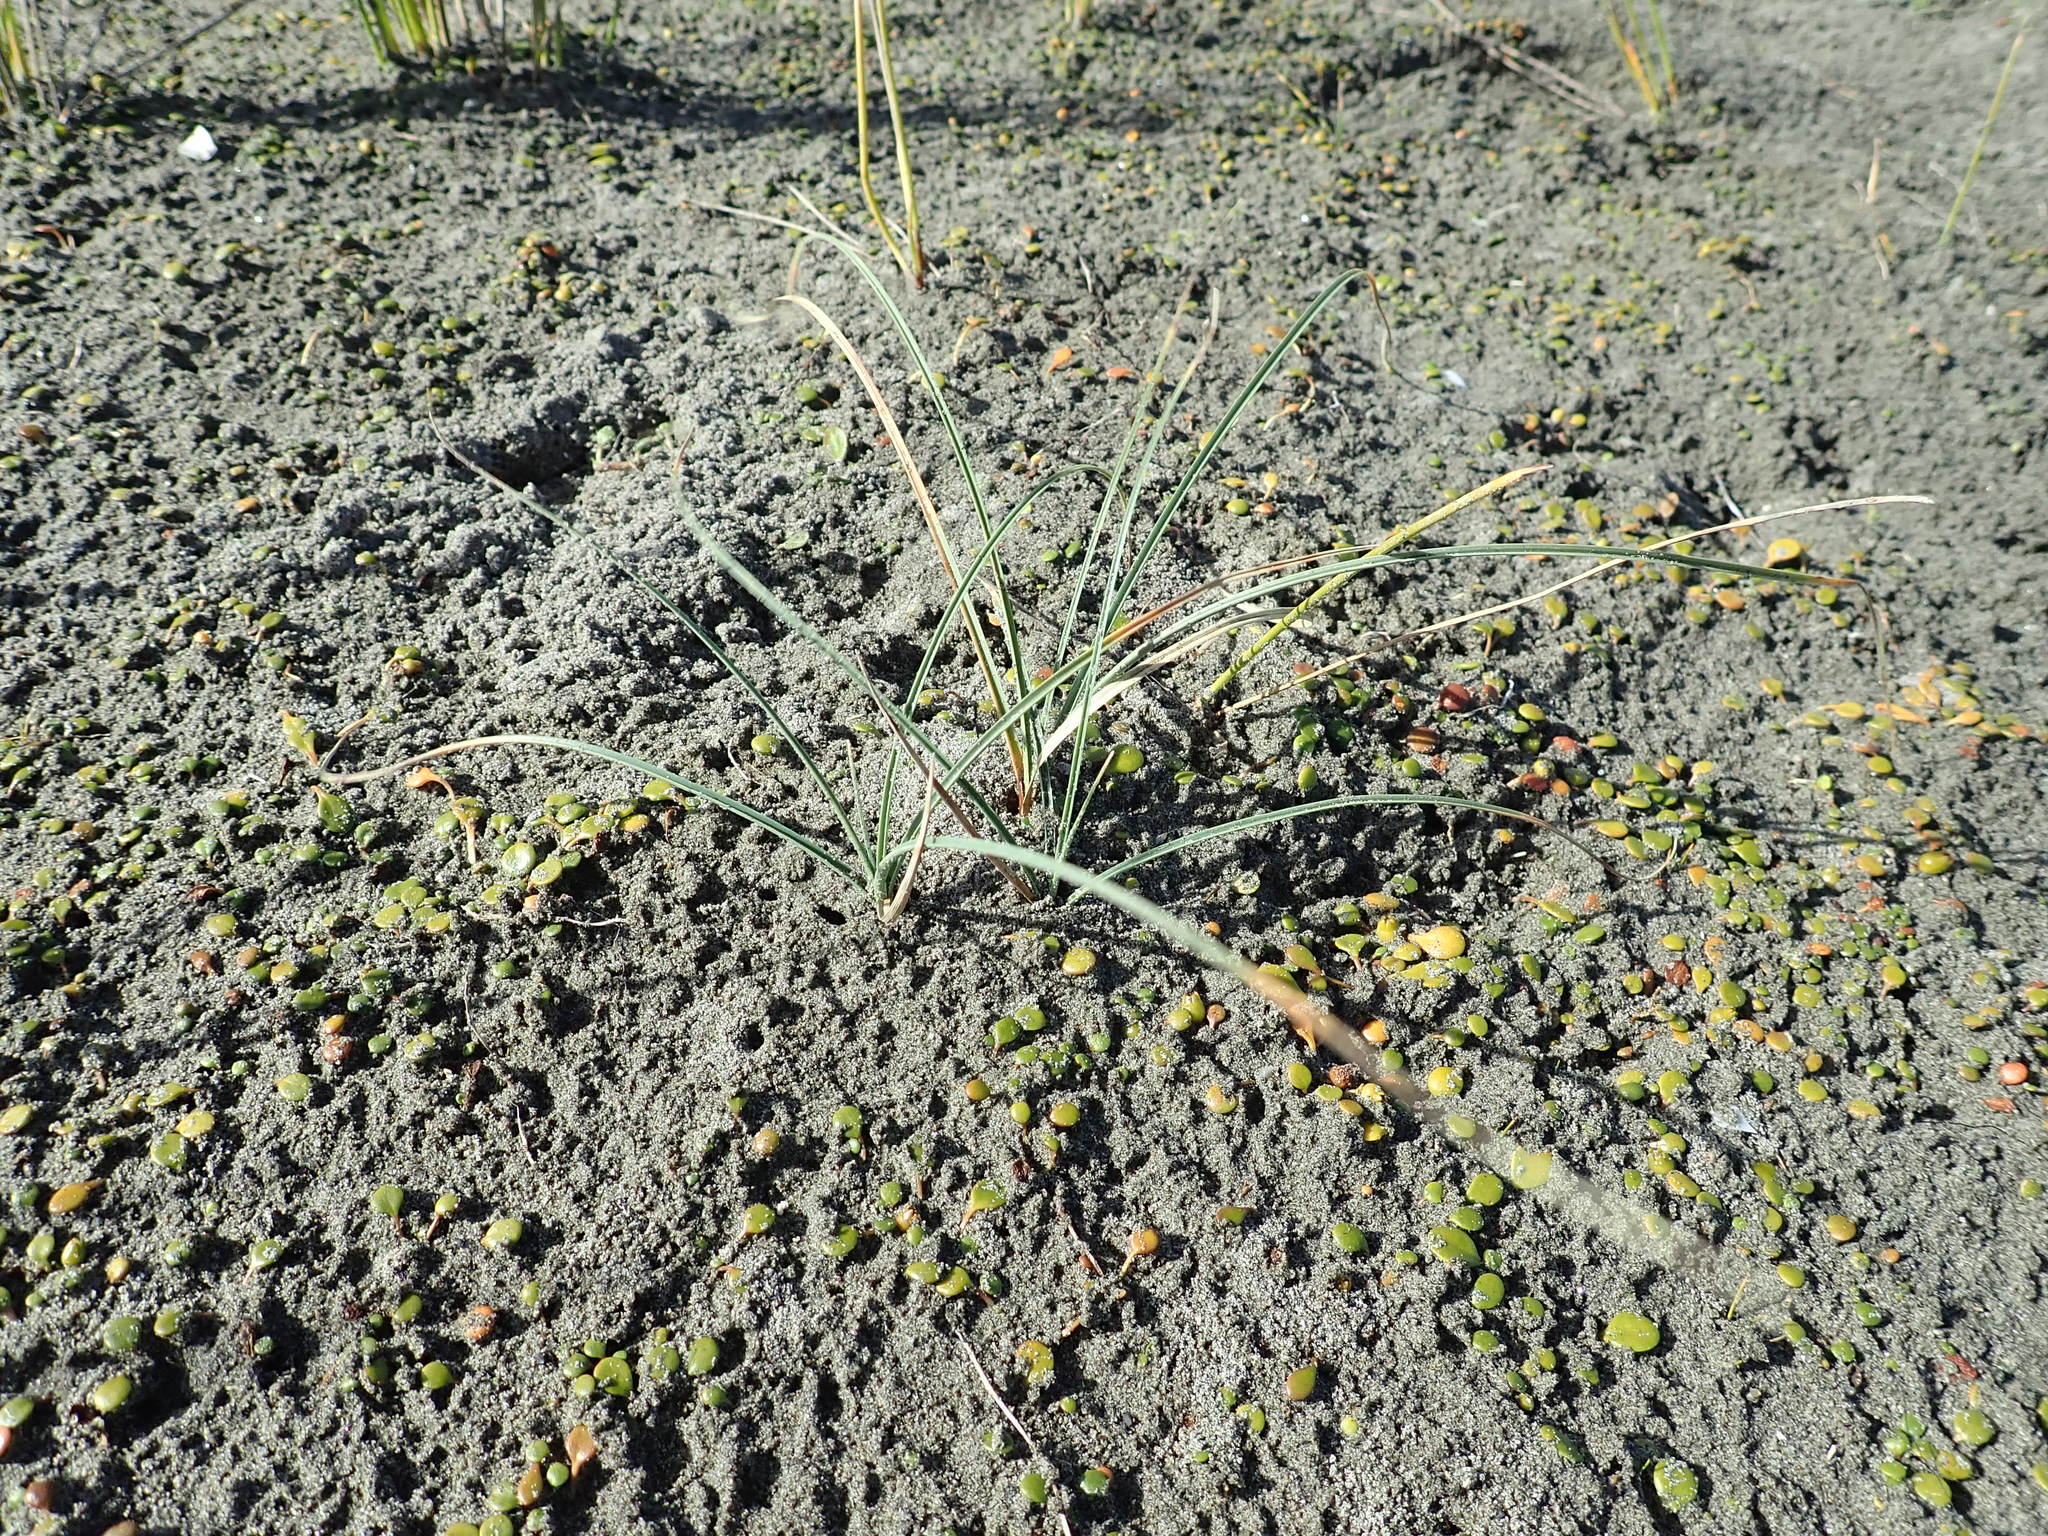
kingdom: Plantae
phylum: Tracheophyta
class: Liliopsida
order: Poales
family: Cyperaceae
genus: Carex
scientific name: Carex pumila
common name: Dwarf sedge
